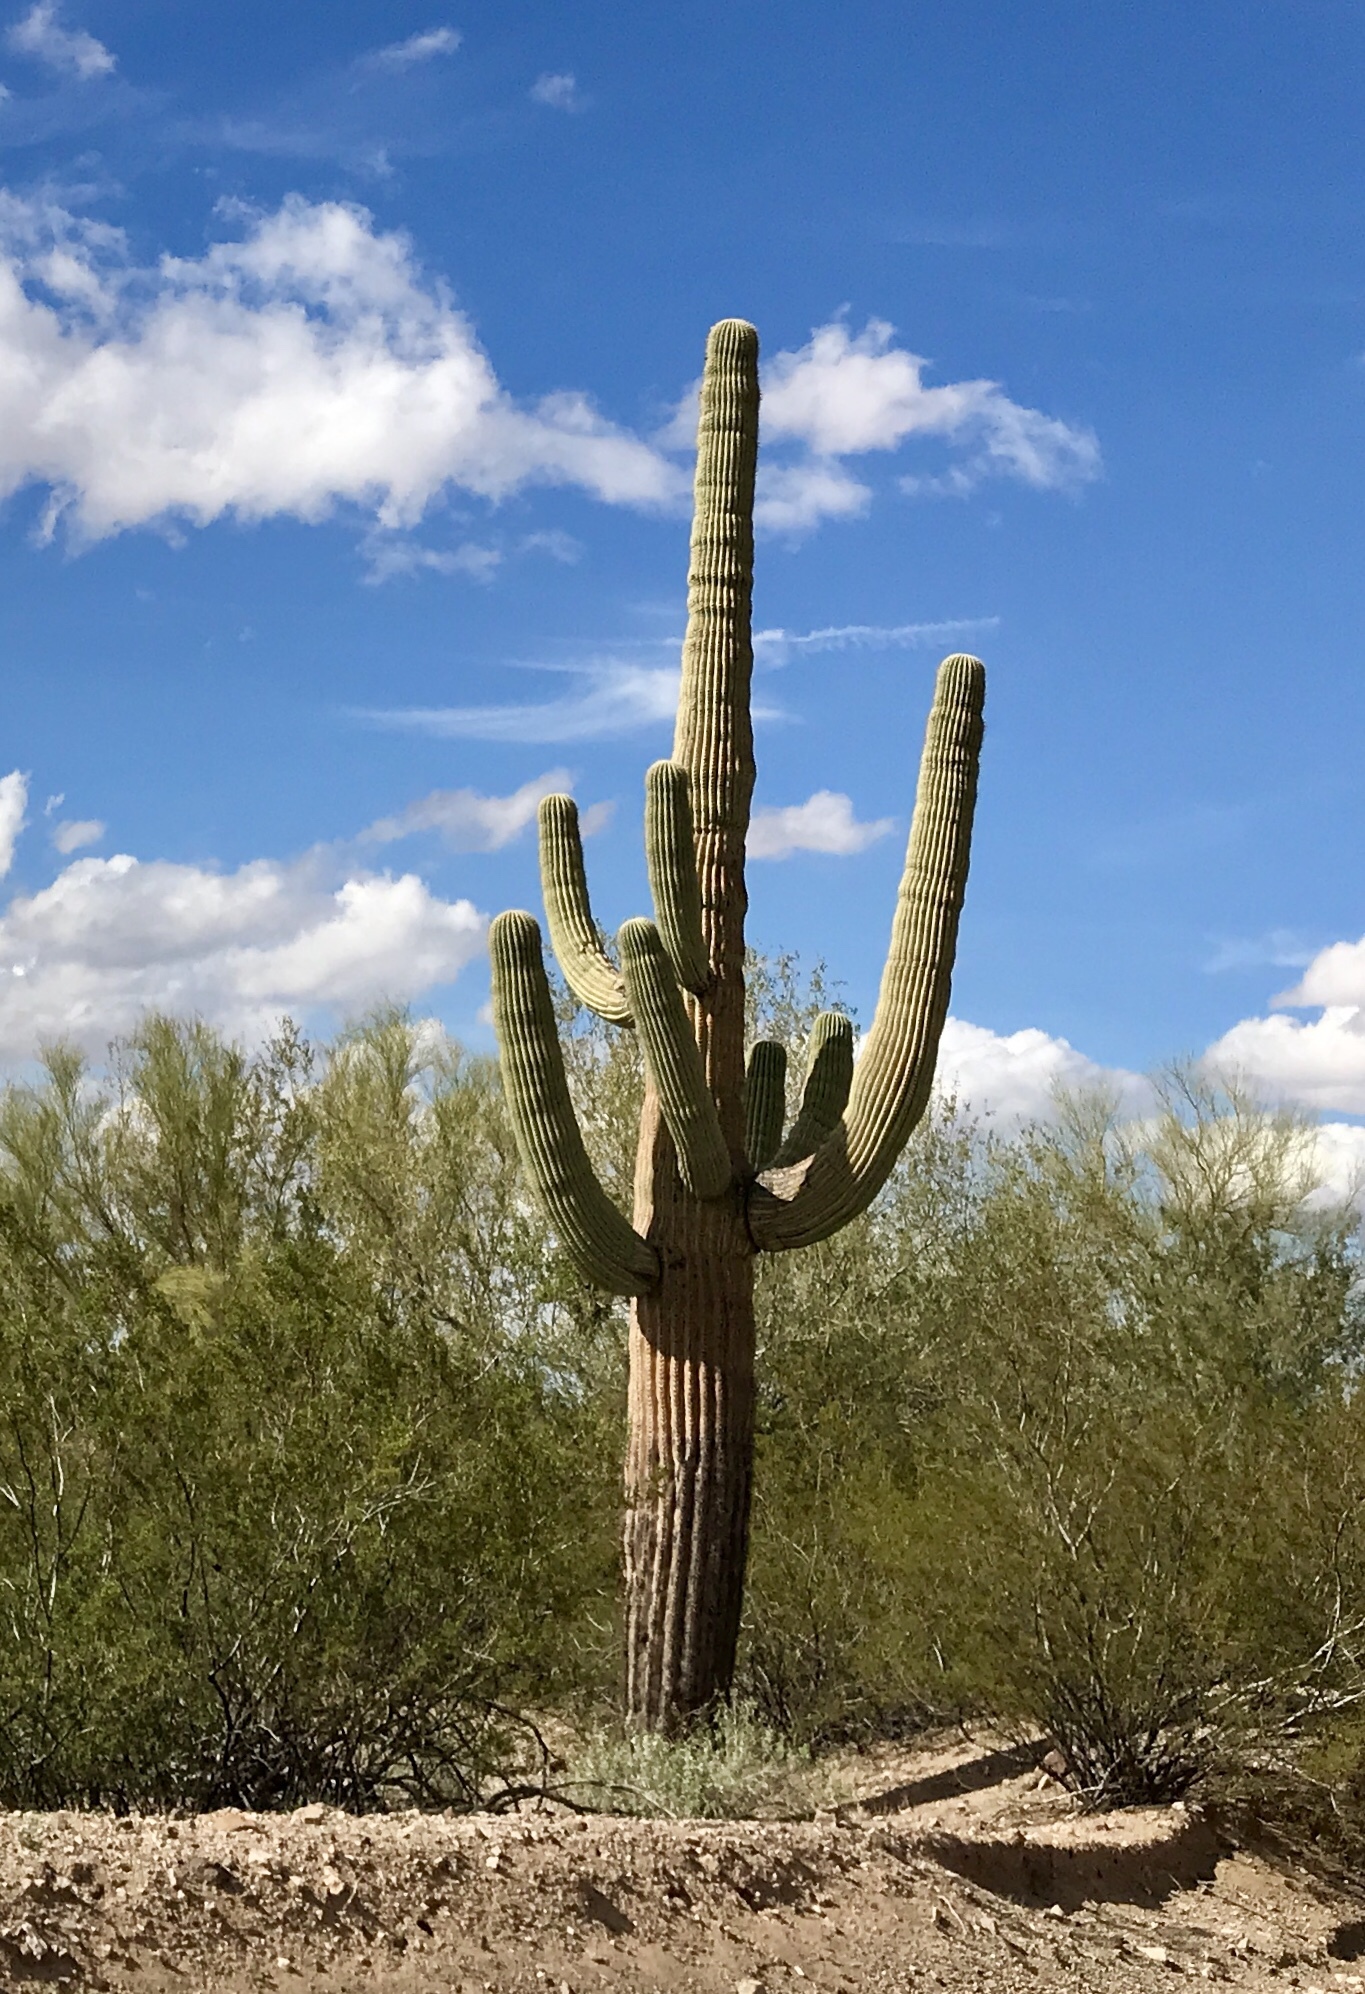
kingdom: Plantae
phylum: Tracheophyta
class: Magnoliopsida
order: Caryophyllales
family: Cactaceae
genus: Carnegiea
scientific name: Carnegiea gigantea
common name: Saguaro
